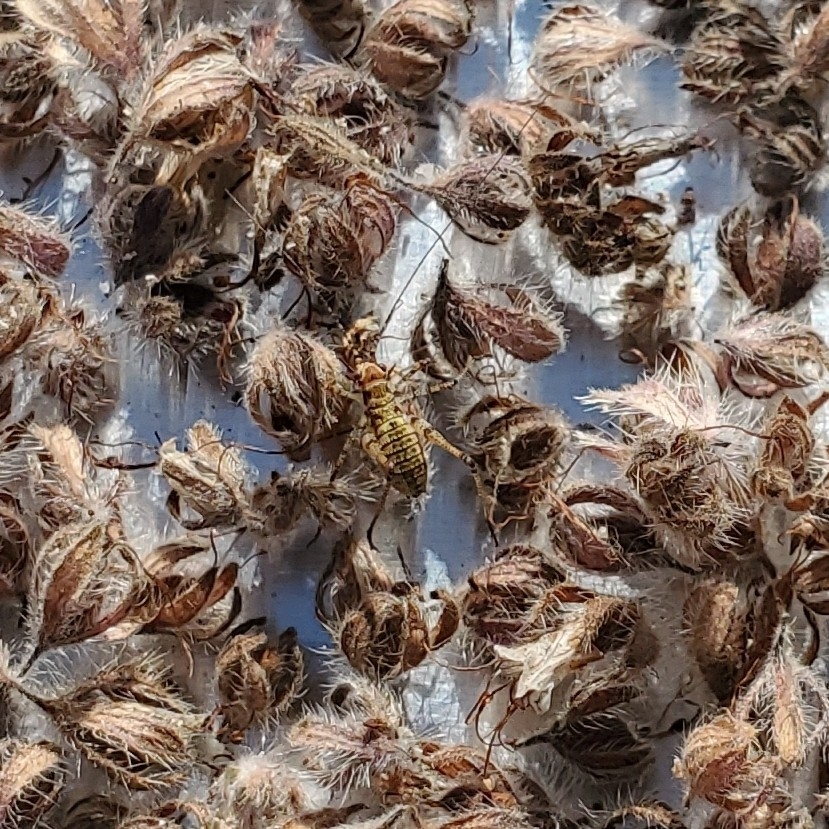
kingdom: Animalia
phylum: Arthropoda
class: Insecta
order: Orthoptera
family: Tettigoniidae
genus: Phaneroptera
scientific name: Phaneroptera nana
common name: Southern sickle bush-cricket
